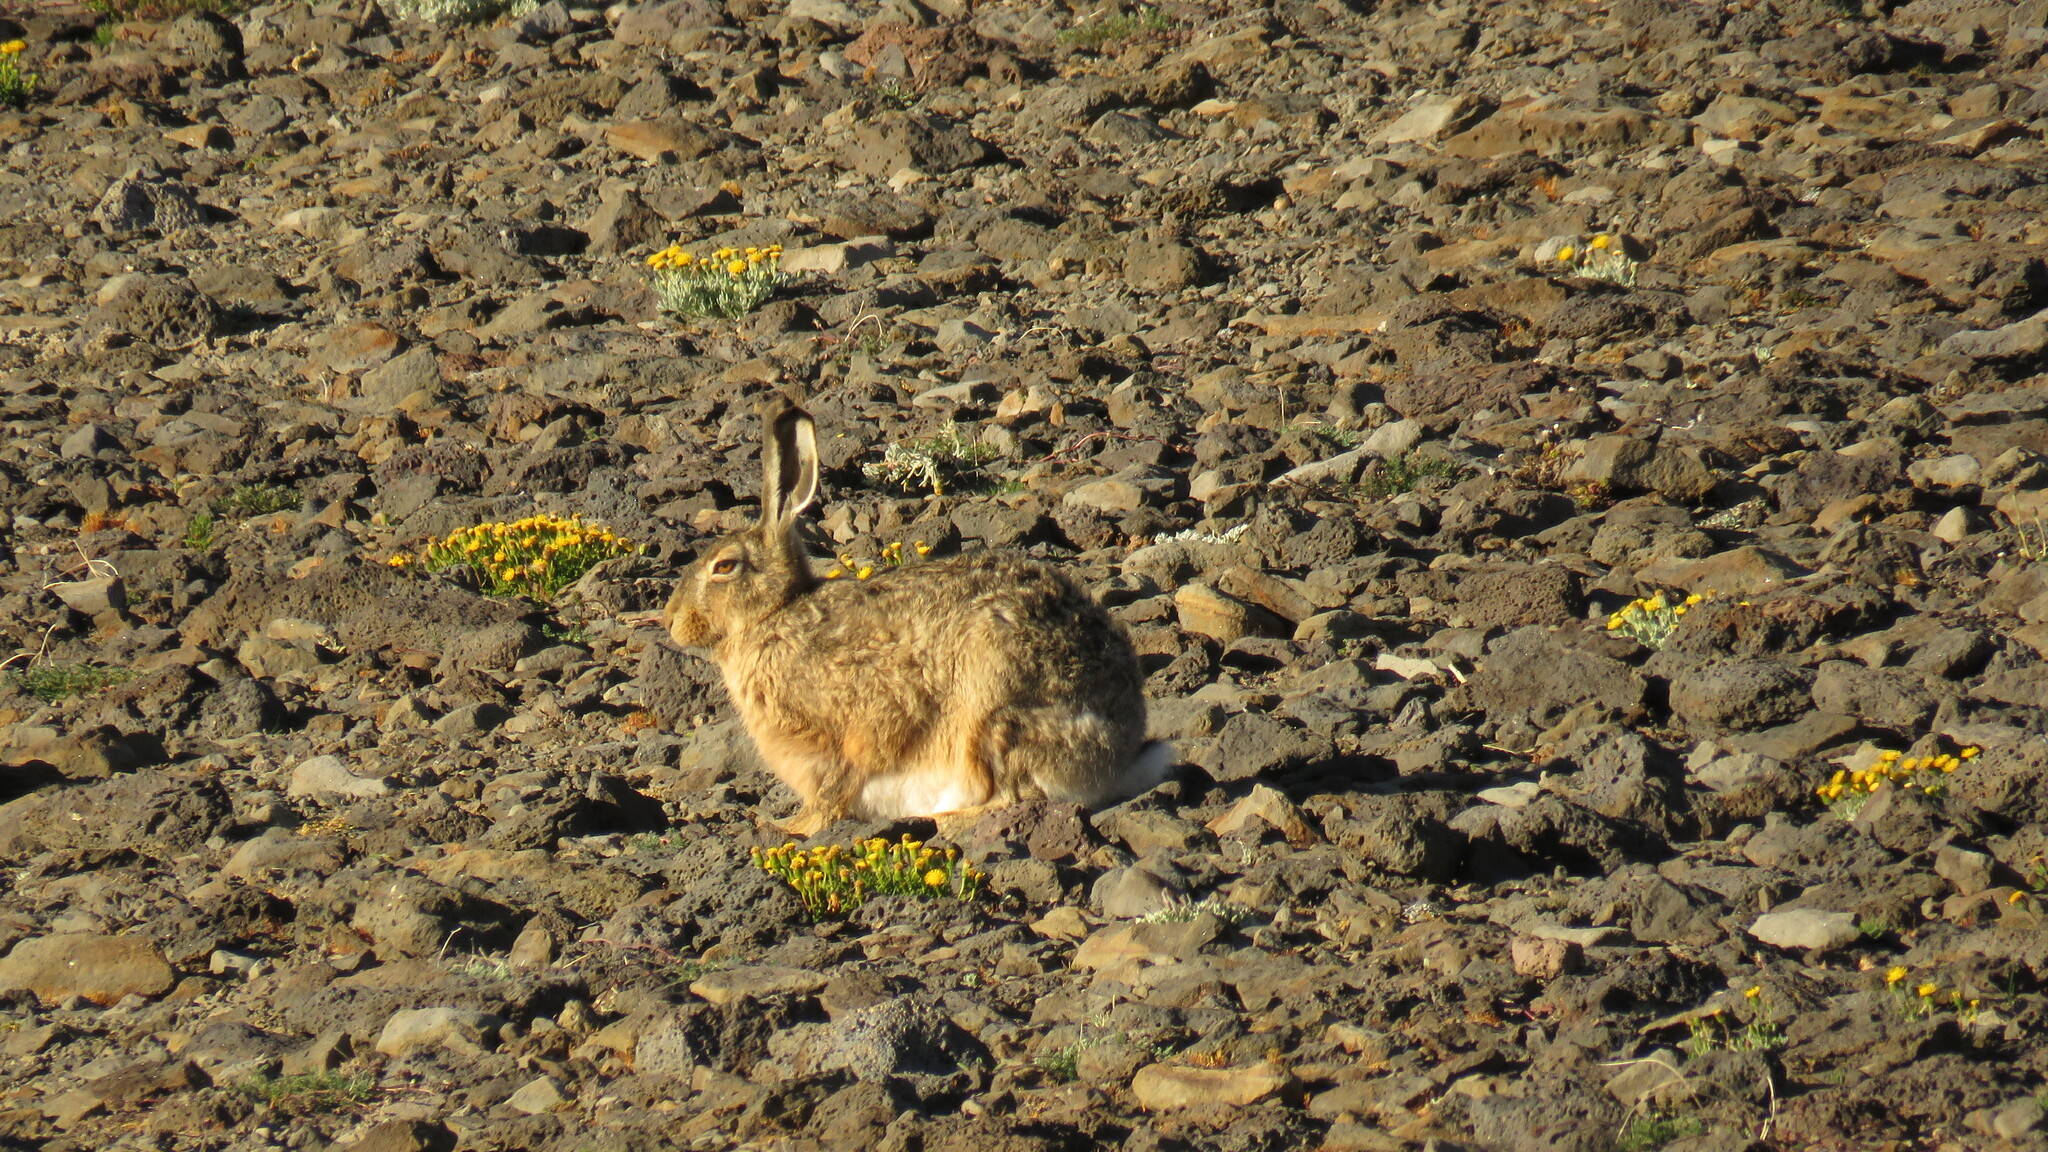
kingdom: Animalia
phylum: Chordata
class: Mammalia
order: Lagomorpha
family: Leporidae
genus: Lepus
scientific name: Lepus europaeus
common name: European hare
